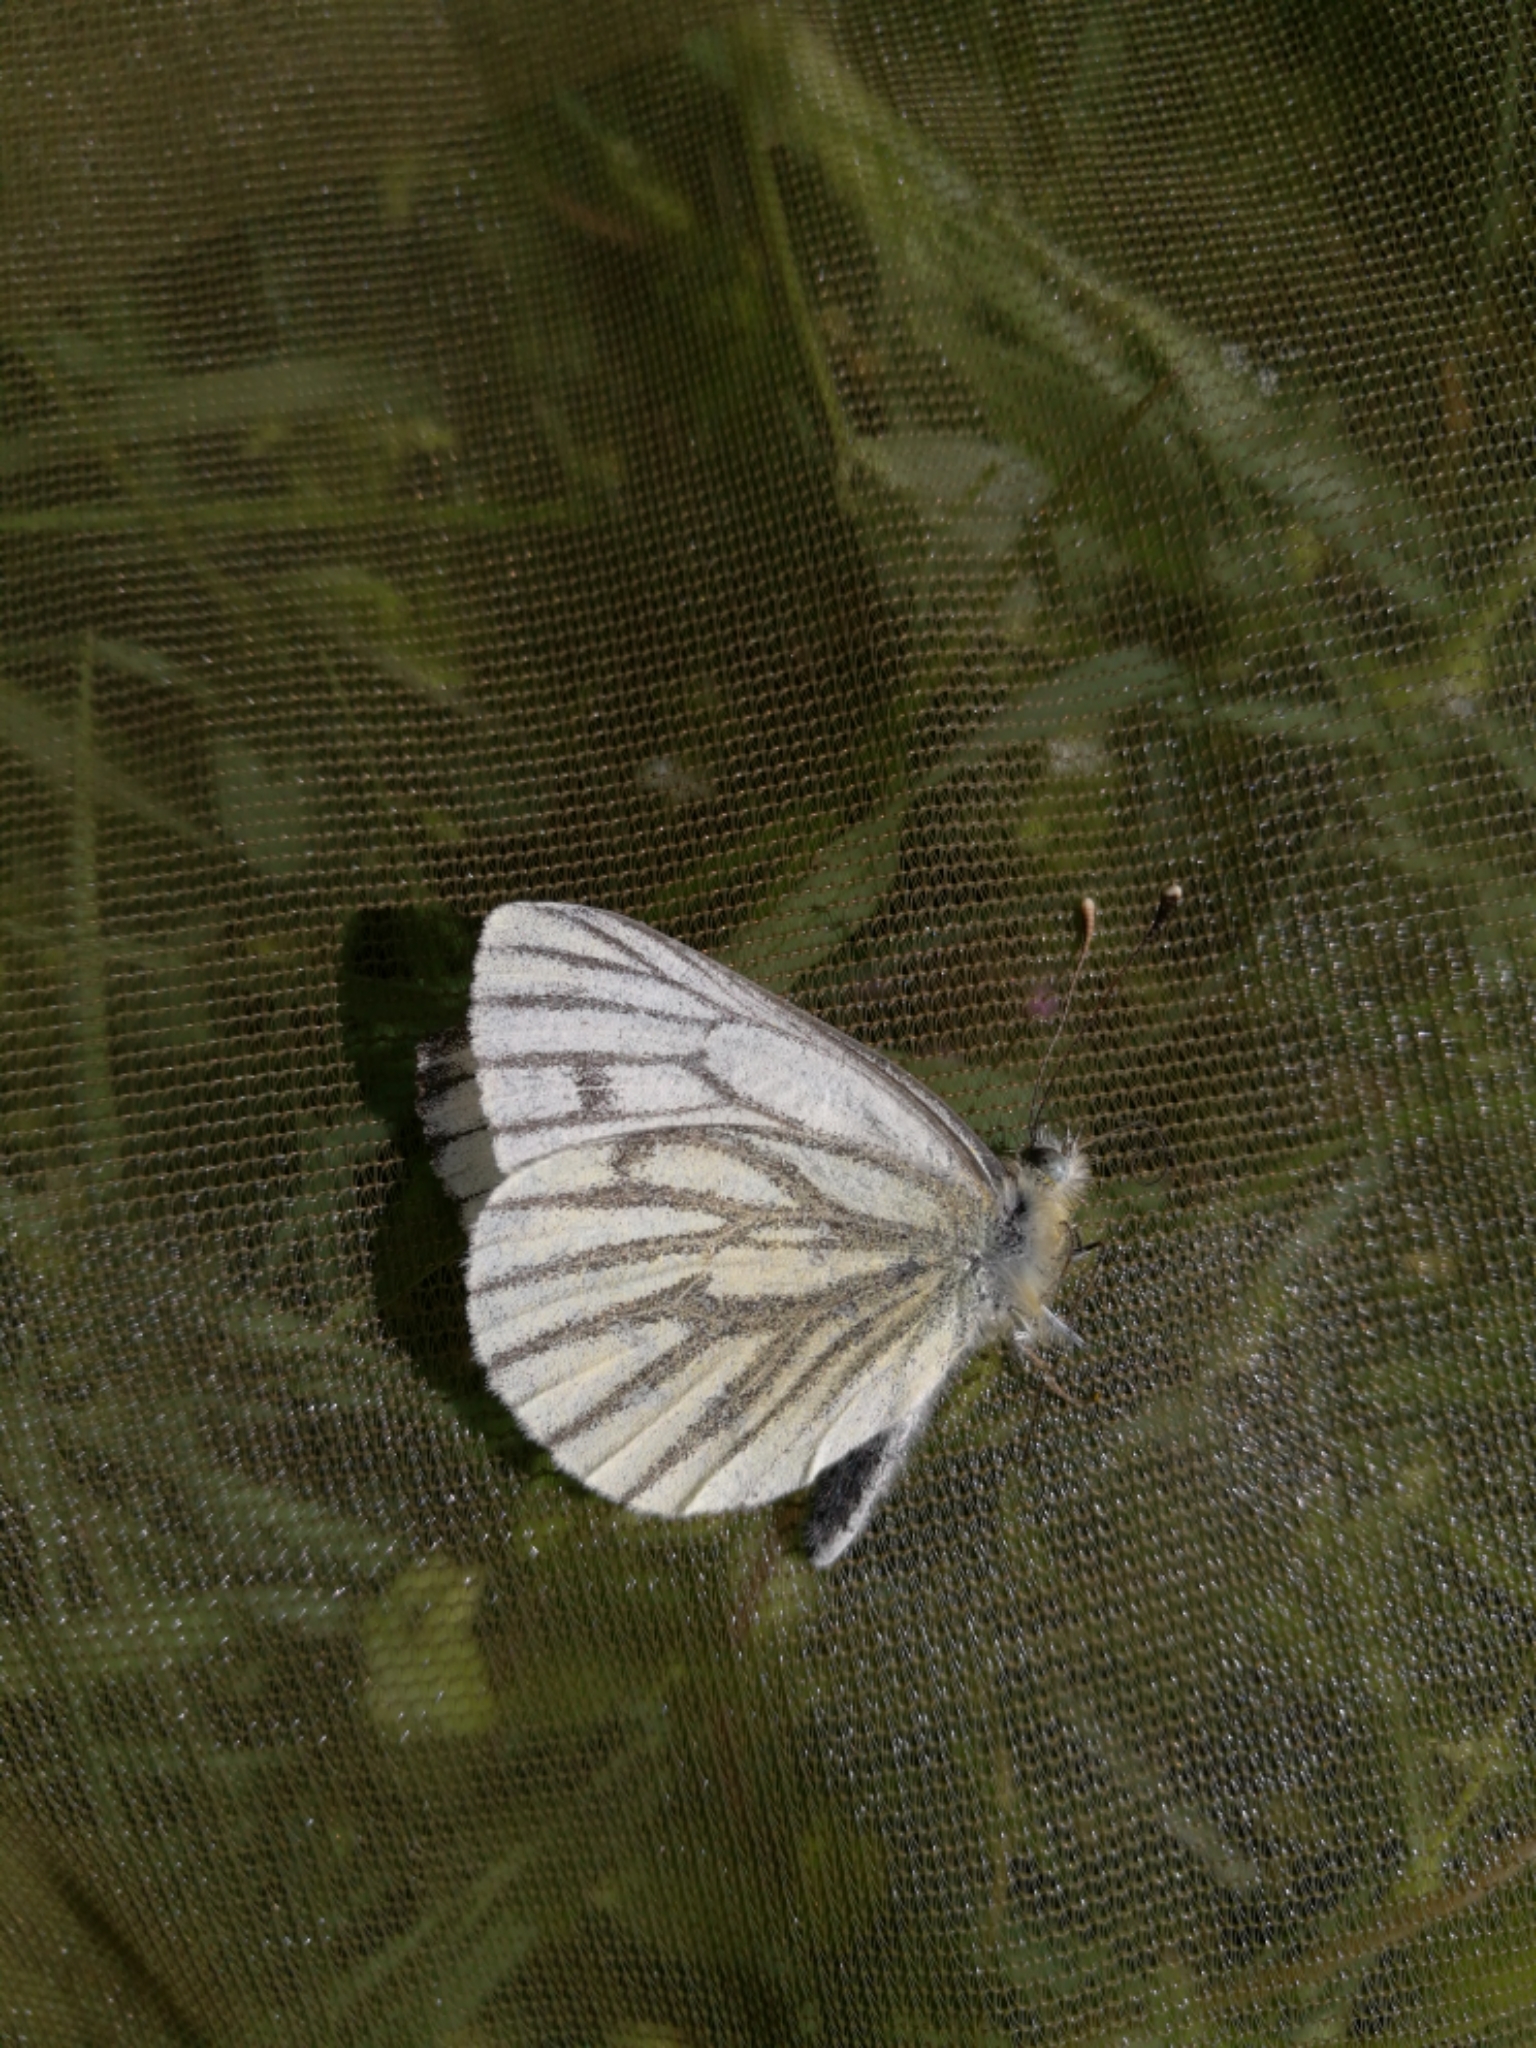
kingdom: Animalia
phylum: Arthropoda
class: Insecta
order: Lepidoptera
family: Pieridae
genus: Pieris
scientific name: Pieris napi
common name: Green-veined white
